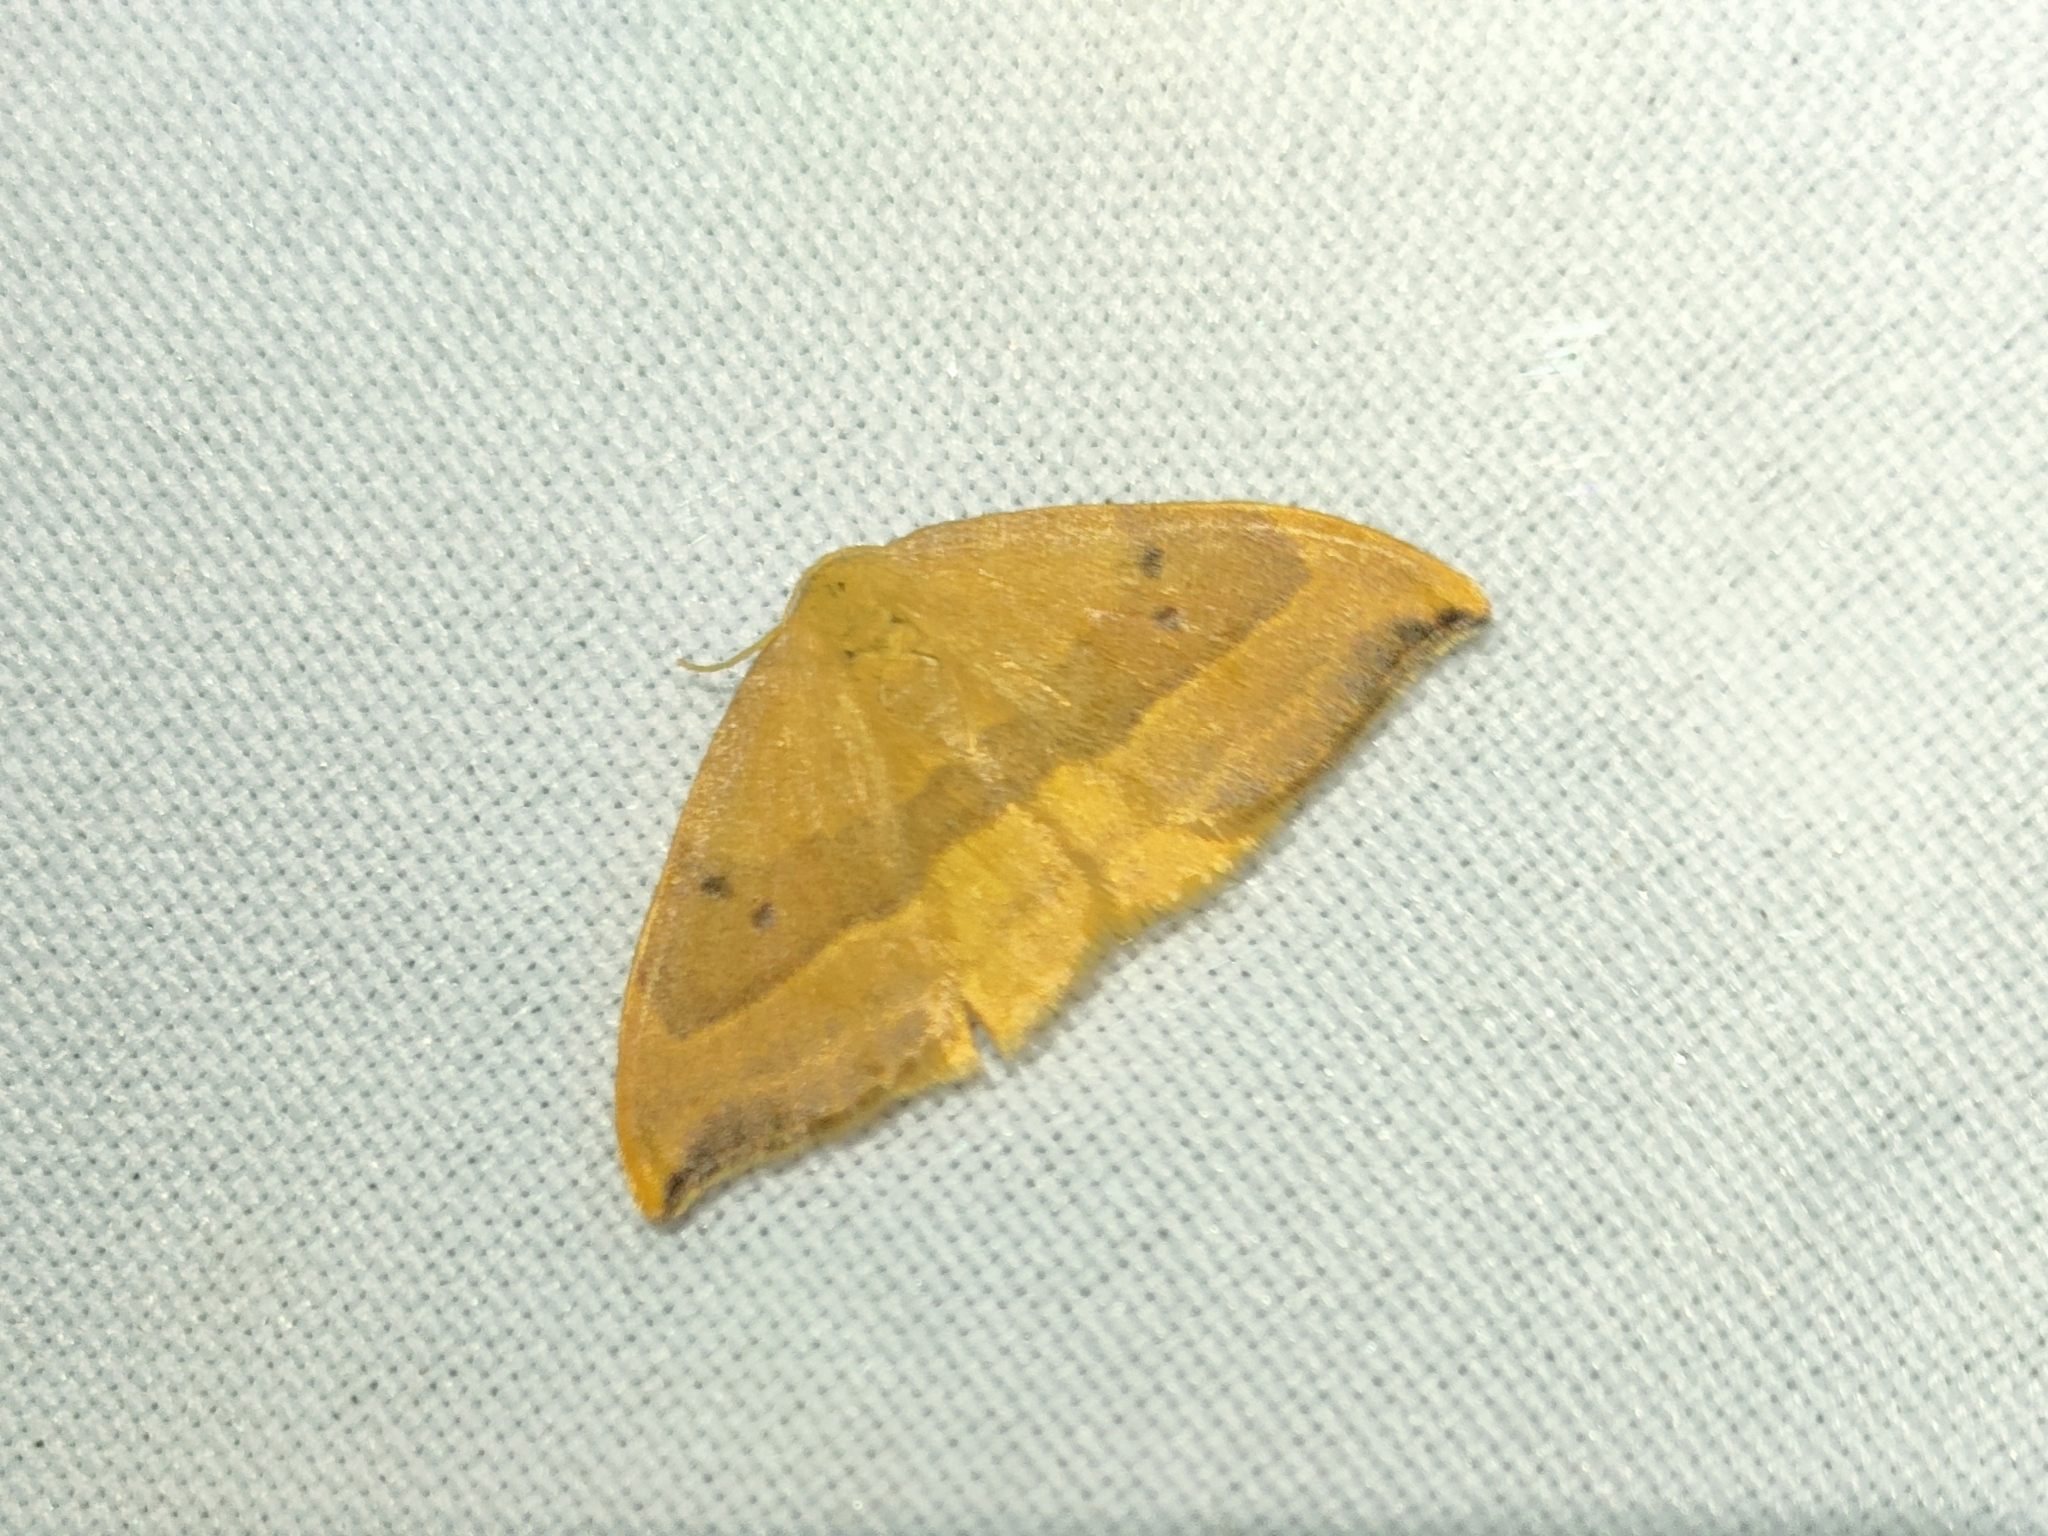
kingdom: Animalia
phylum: Arthropoda
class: Insecta
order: Lepidoptera
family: Drepanidae
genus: Watsonalla
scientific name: Watsonalla binaria
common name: Oak hook-tip
